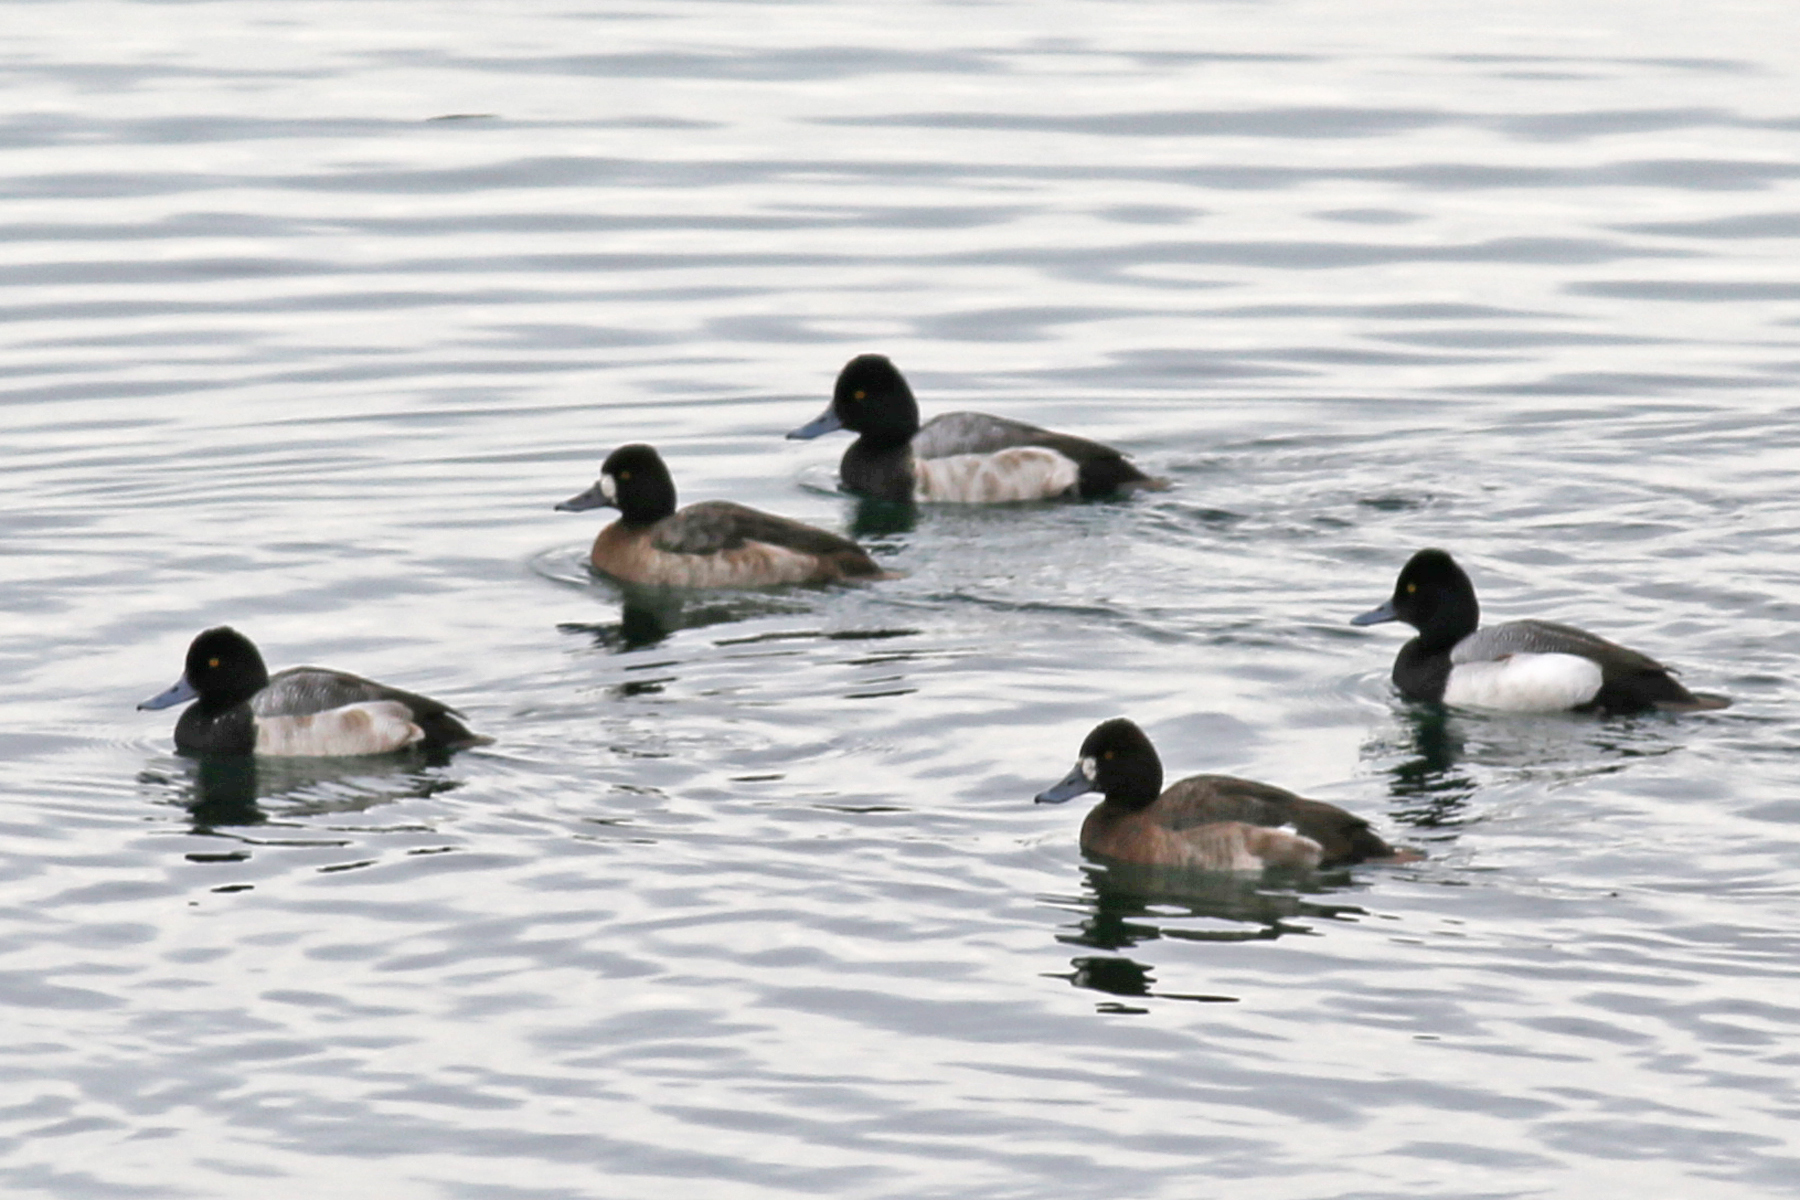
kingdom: Animalia
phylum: Chordata
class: Aves
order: Anseriformes
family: Anatidae
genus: Aythya
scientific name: Aythya affinis
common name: Lesser scaup
